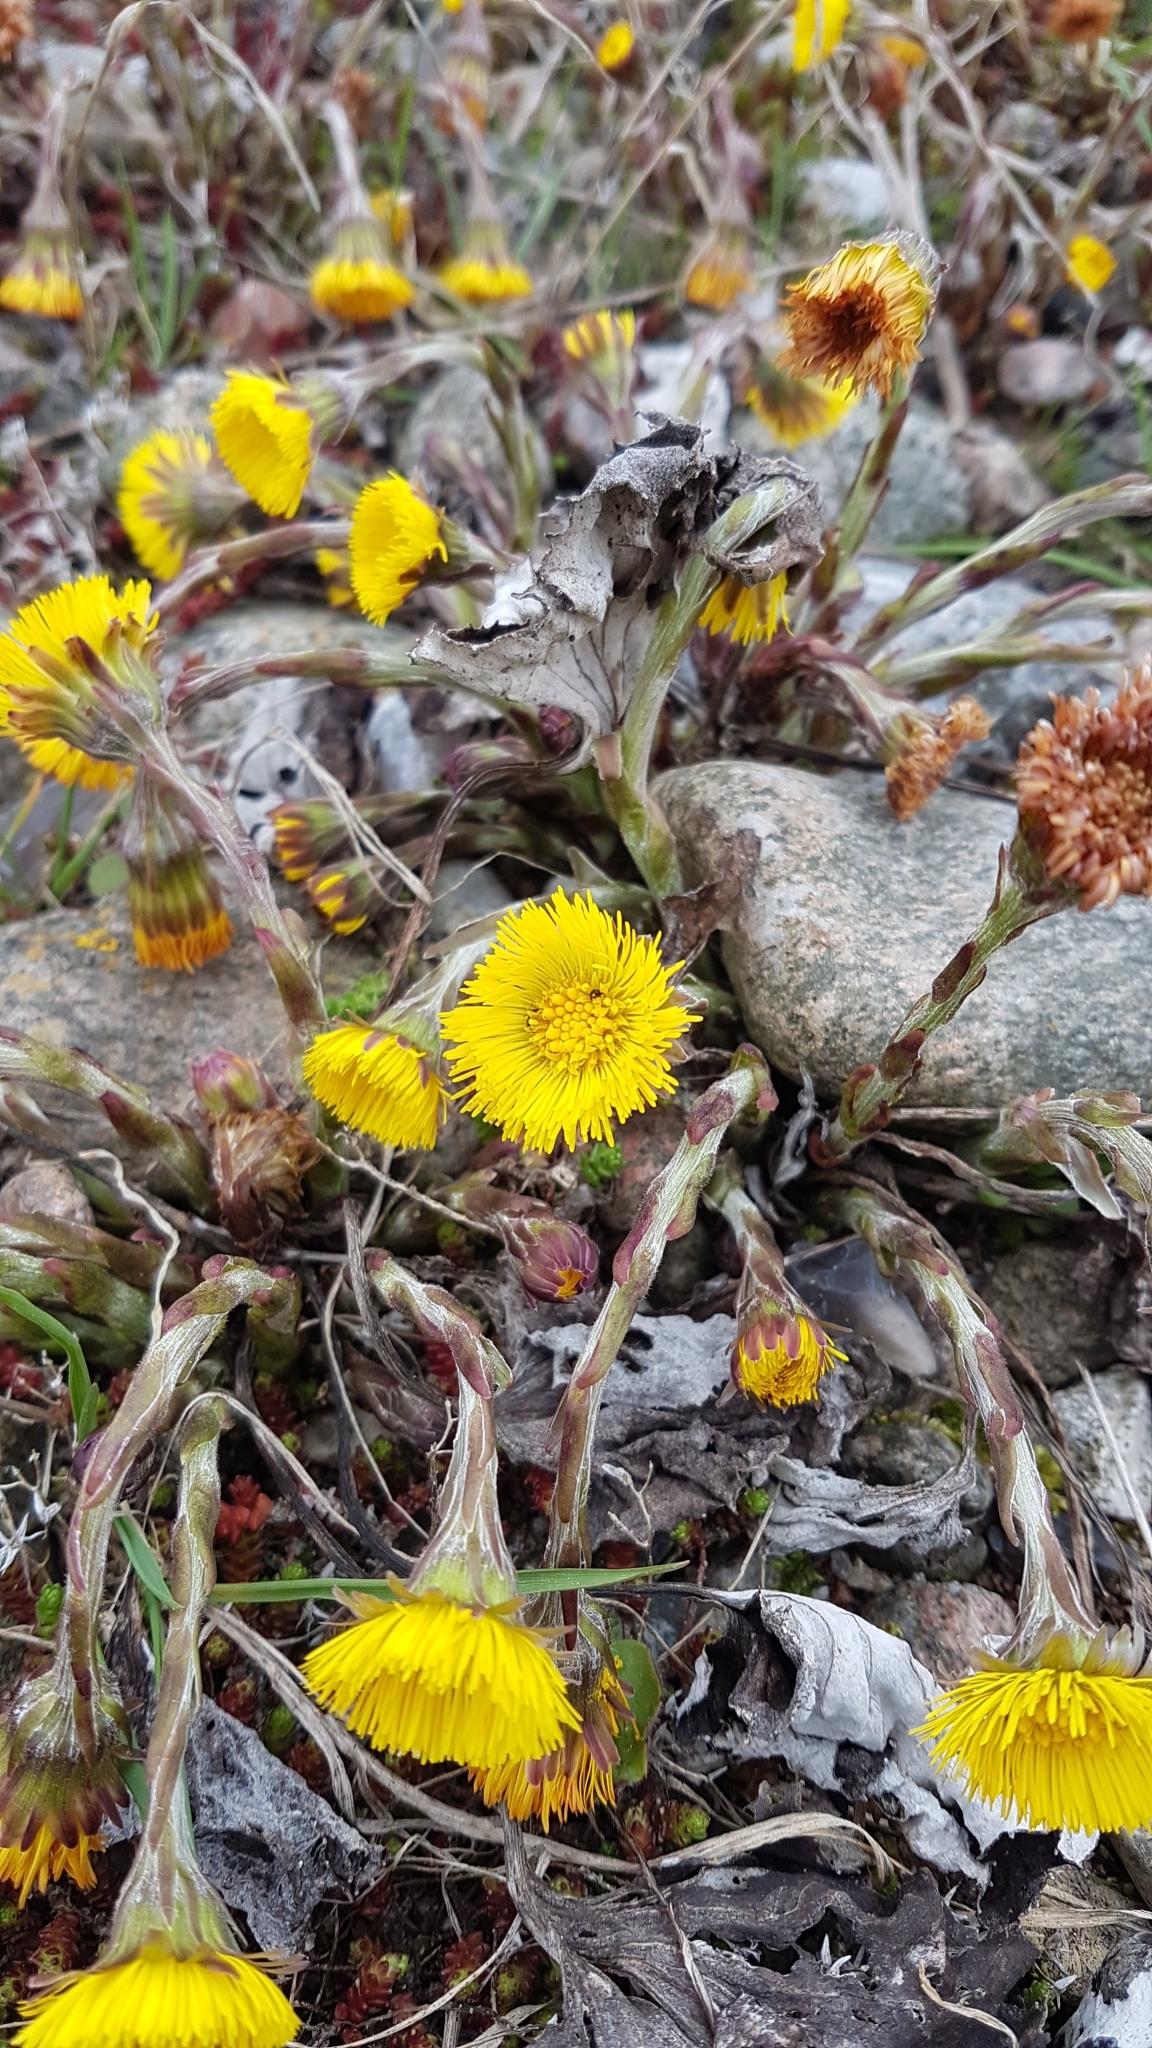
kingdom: Plantae
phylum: Tracheophyta
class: Magnoliopsida
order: Asterales
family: Asteraceae
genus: Tussilago
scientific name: Tussilago farfara
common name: Coltsfoot
